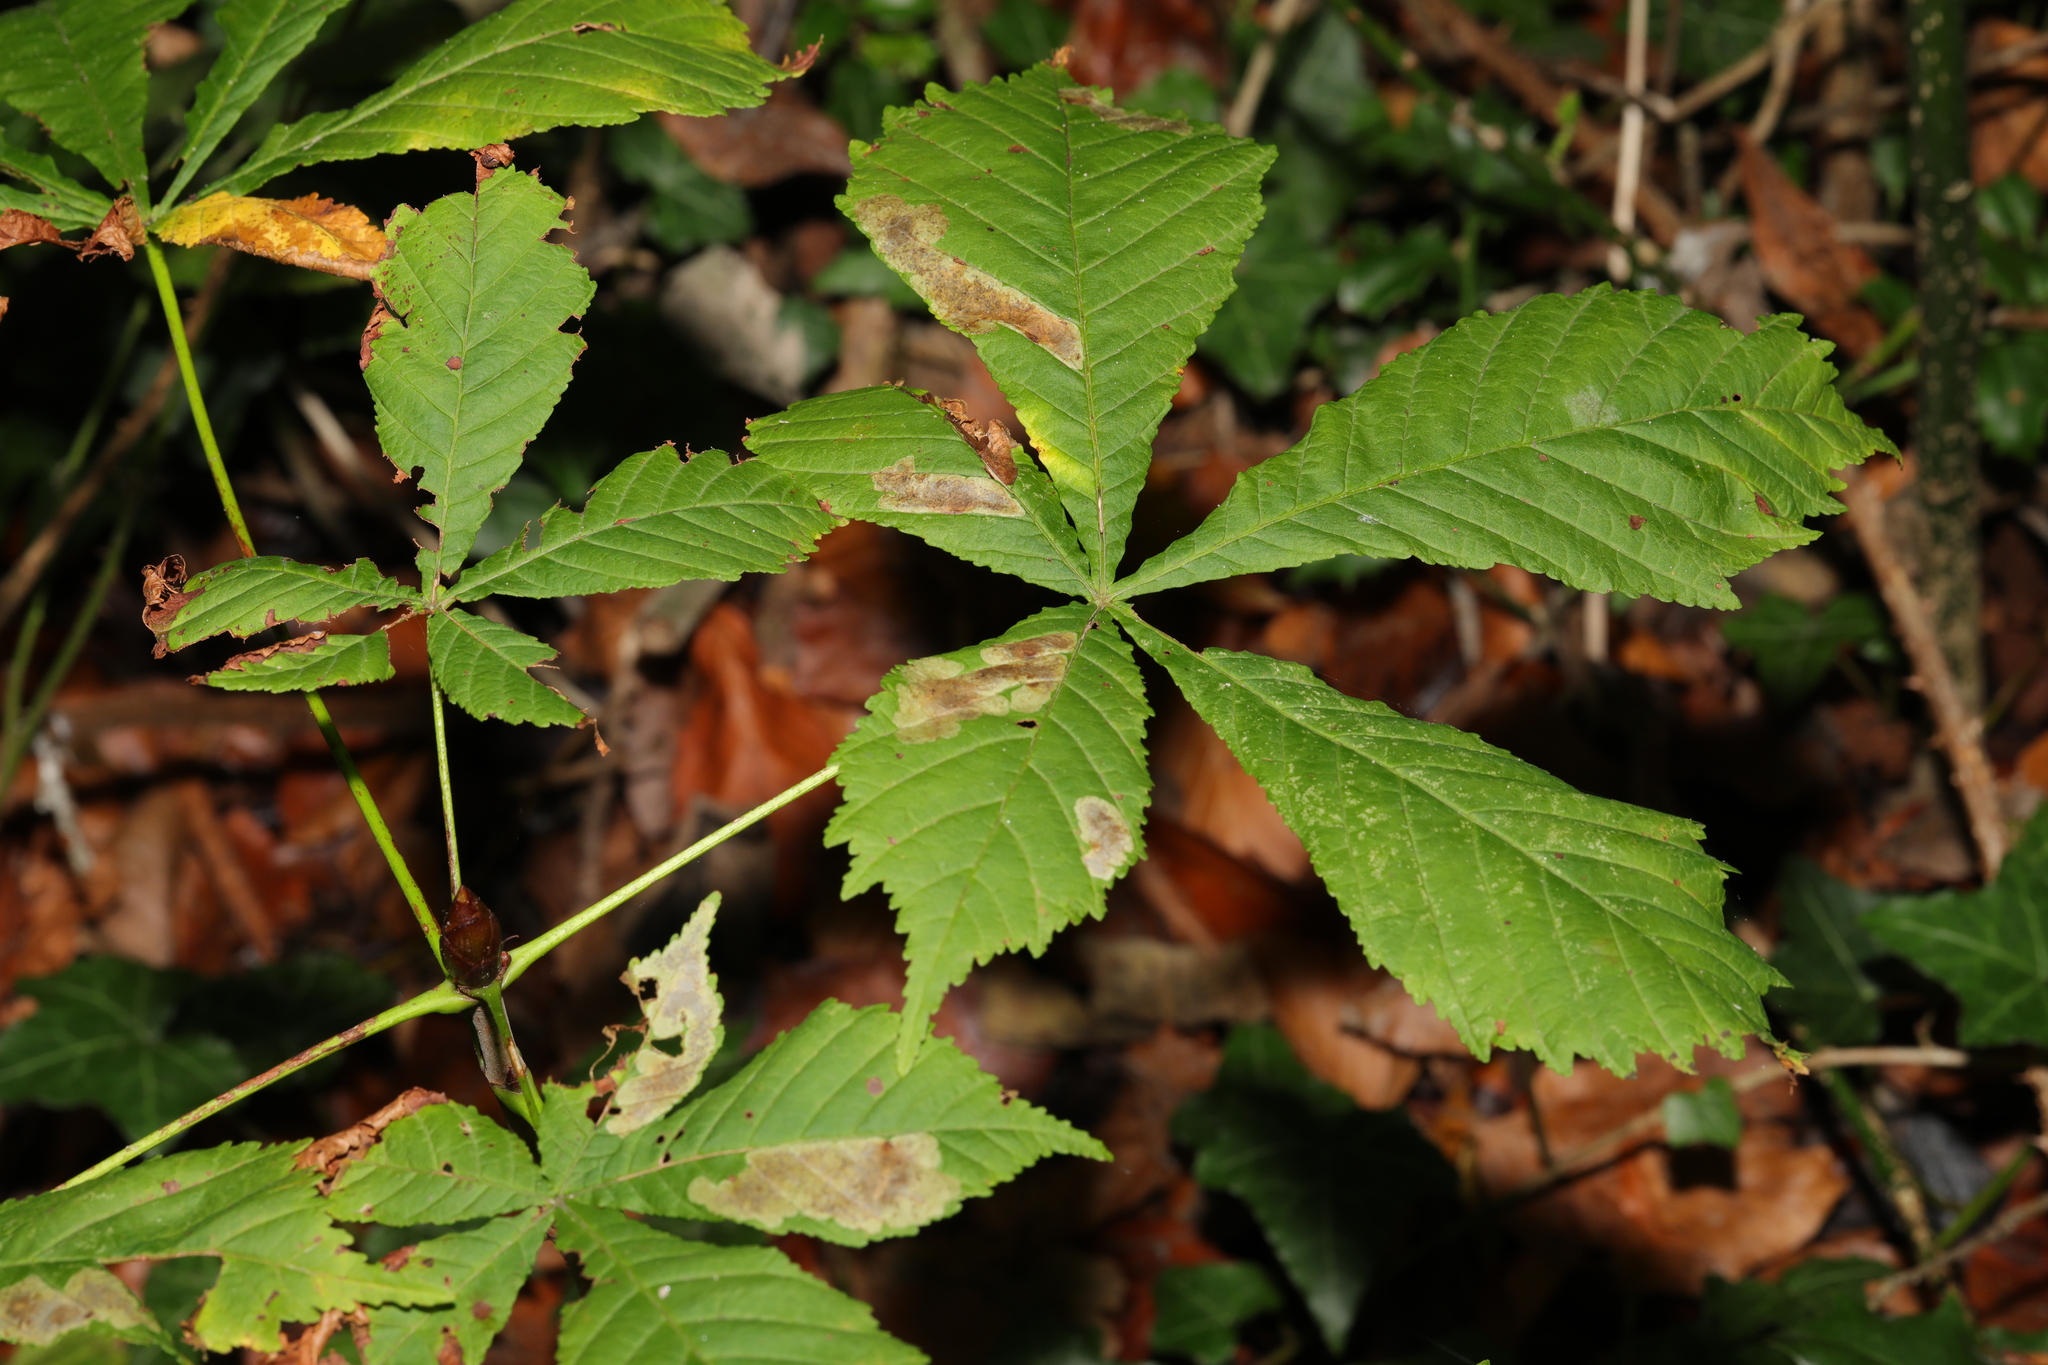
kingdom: Plantae
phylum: Tracheophyta
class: Magnoliopsida
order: Sapindales
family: Sapindaceae
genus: Aesculus
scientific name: Aesculus hippocastanum
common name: Horse-chestnut
